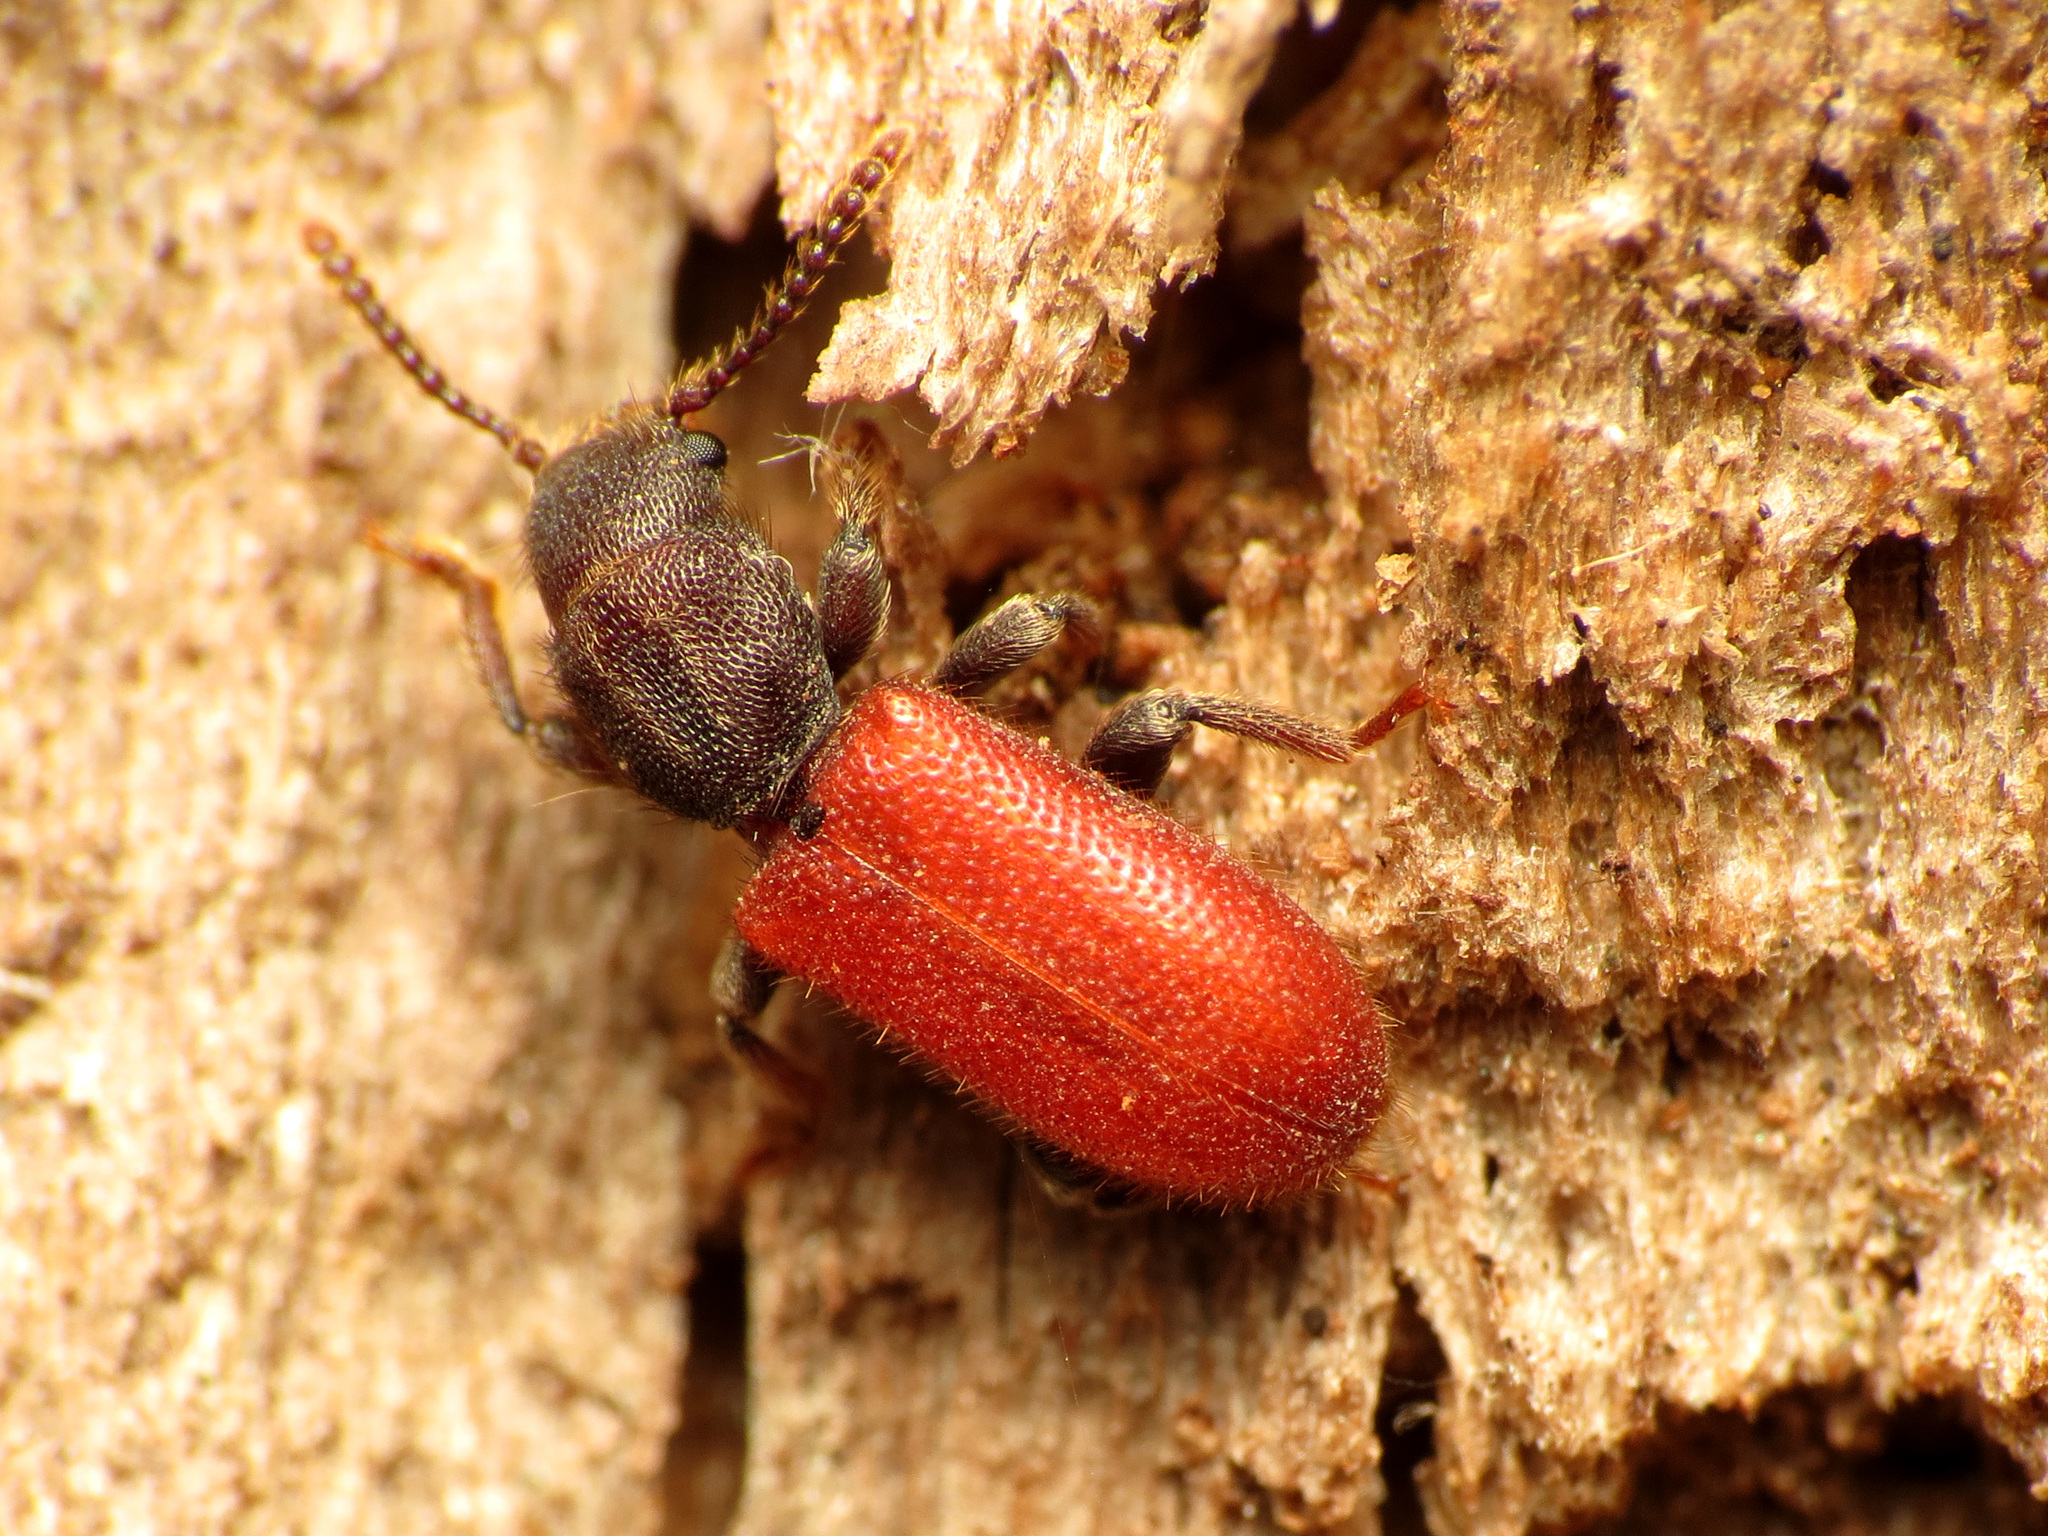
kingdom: Animalia
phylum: Arthropoda
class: Insecta
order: Coleoptera
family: Thanerocleridae
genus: Zenodosus
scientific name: Zenodosus sanguineus
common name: Blood-colored checkered beetle
